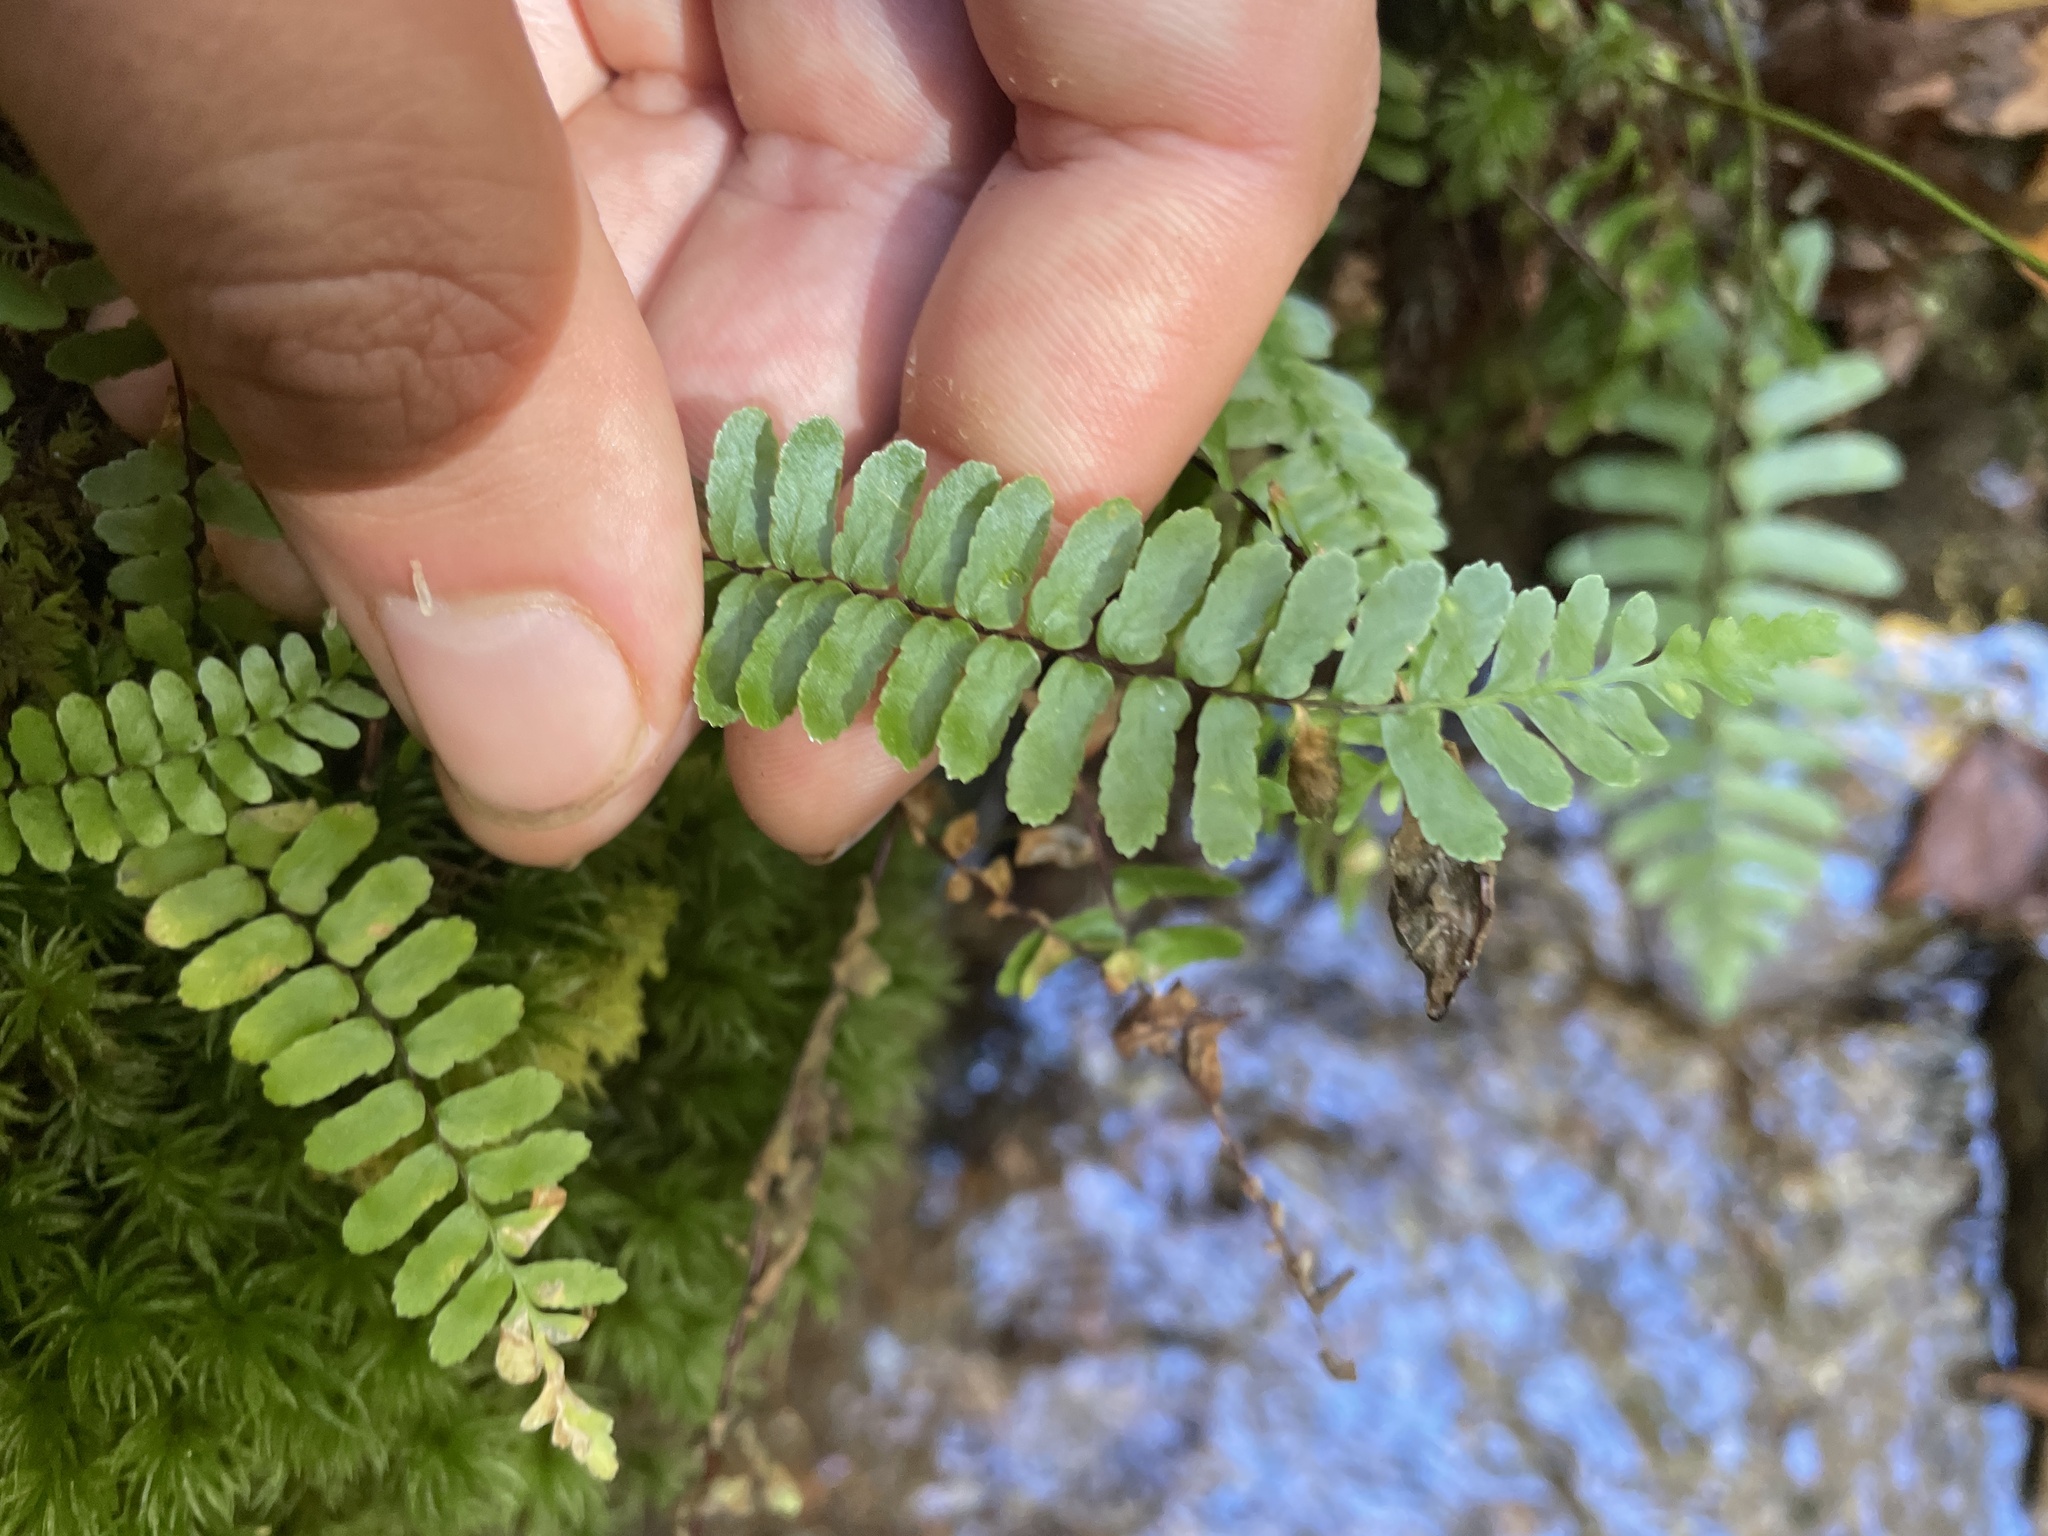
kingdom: Plantae
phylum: Tracheophyta
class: Polypodiopsida
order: Polypodiales
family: Aspleniaceae
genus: Asplenium
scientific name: Asplenium platyneuron
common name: Ebony spleenwort
